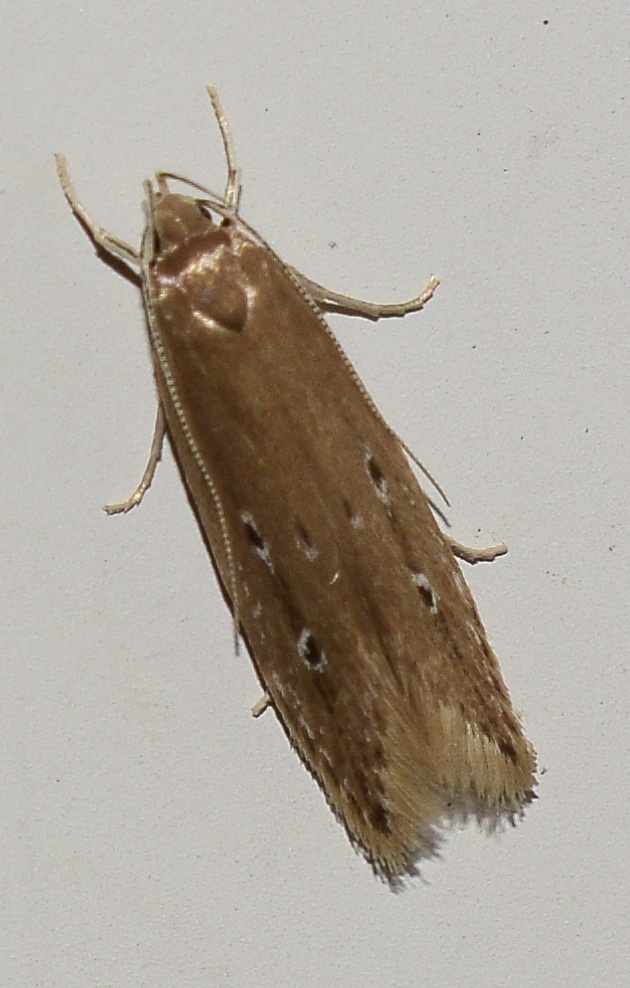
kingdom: Animalia
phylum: Arthropoda
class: Insecta
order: Lepidoptera
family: Cosmopterigidae
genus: Limnaecia
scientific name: Limnaecia phragmitella
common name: Bulrush cosmet
